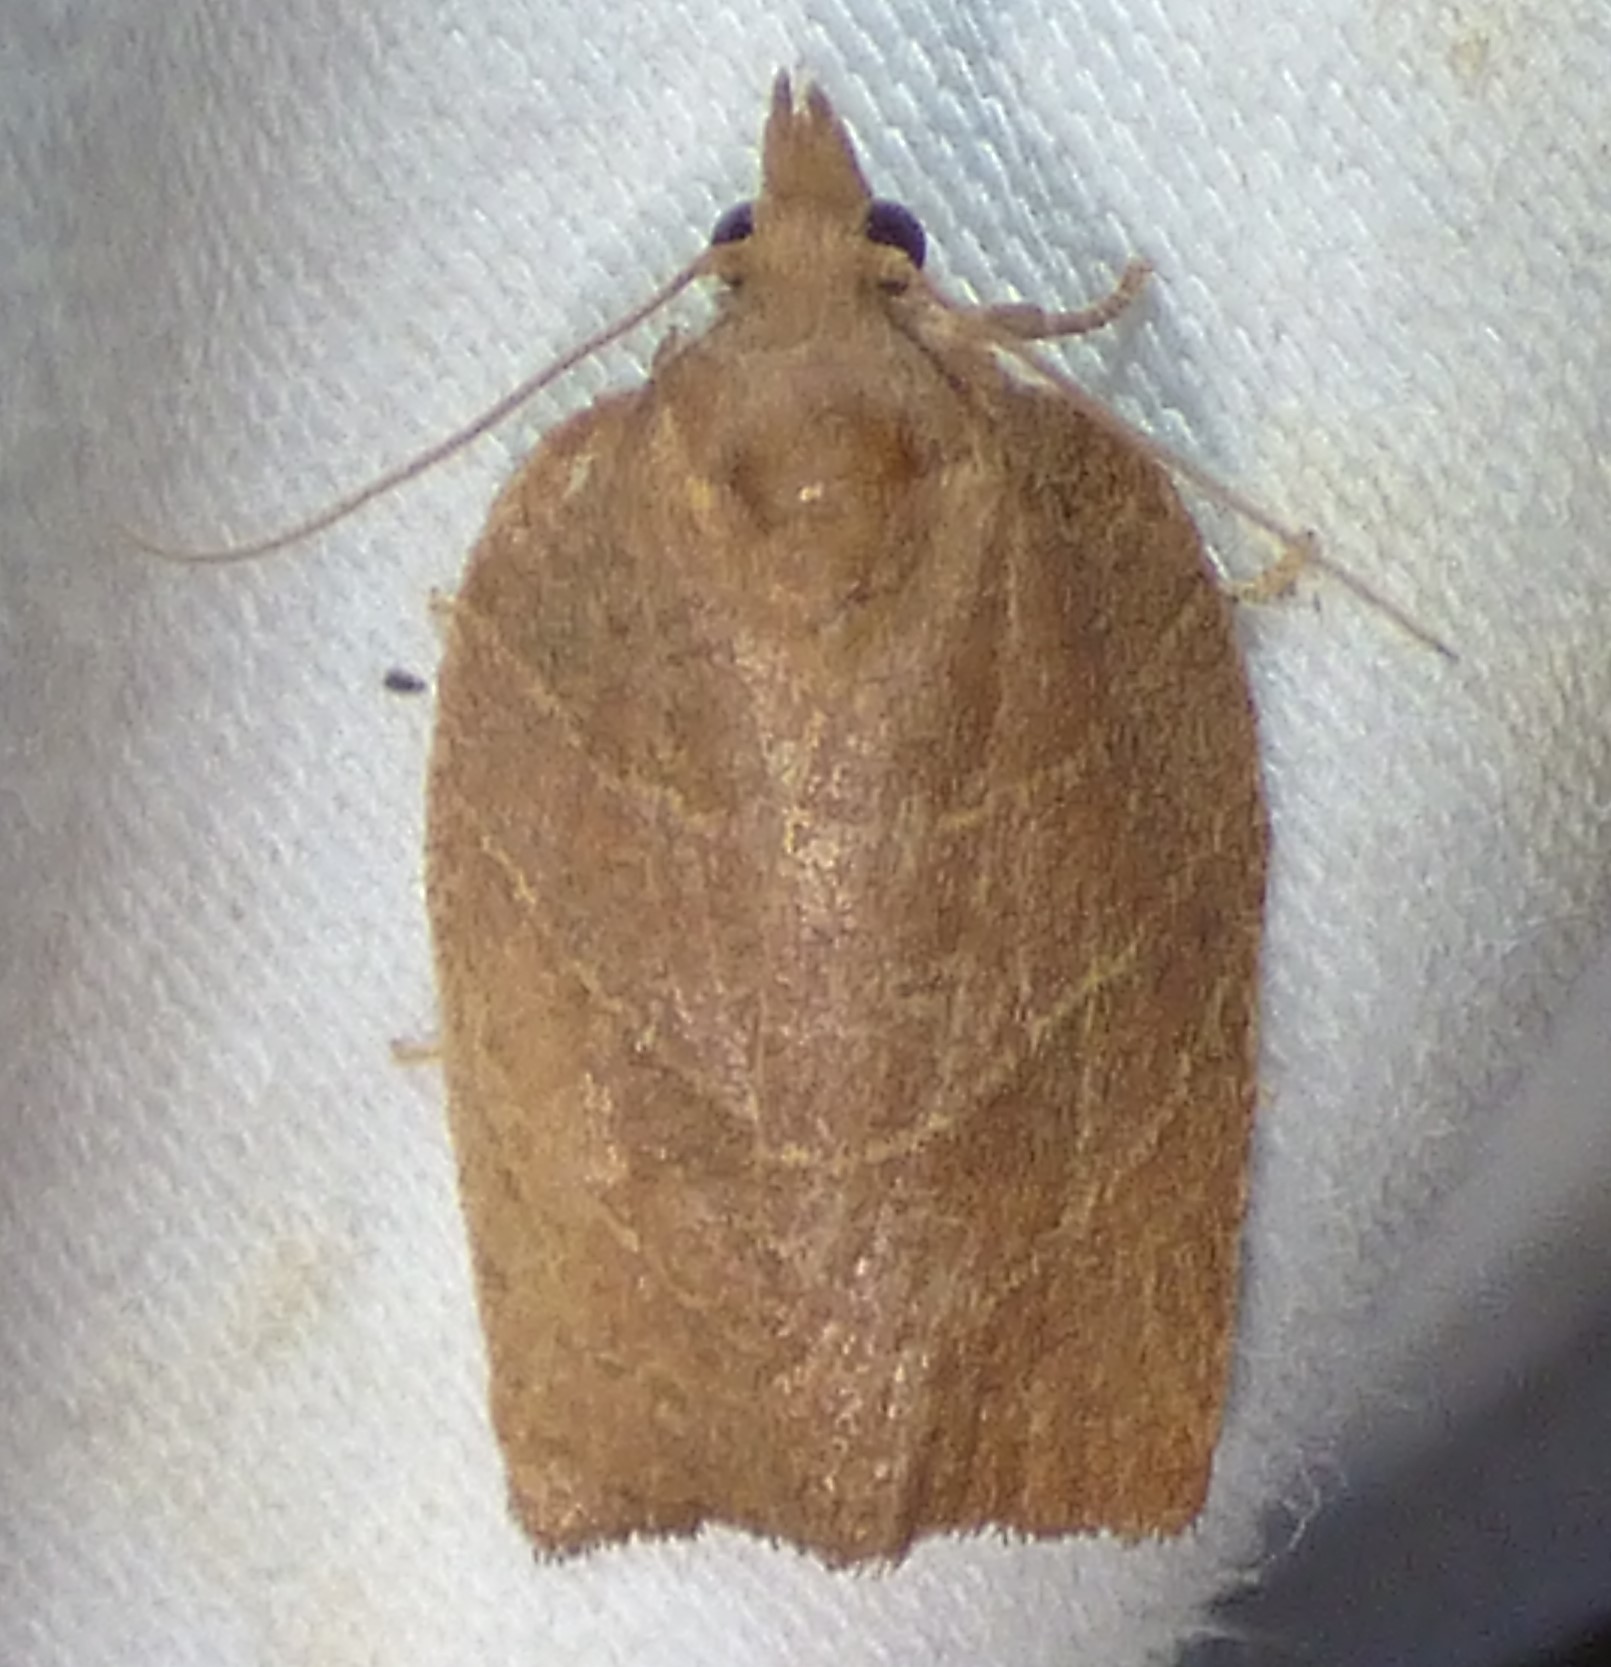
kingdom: Animalia
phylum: Arthropoda
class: Insecta
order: Lepidoptera
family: Tortricidae
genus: Pandemis
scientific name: Pandemis limitata
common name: Three-lined leafroller moth
